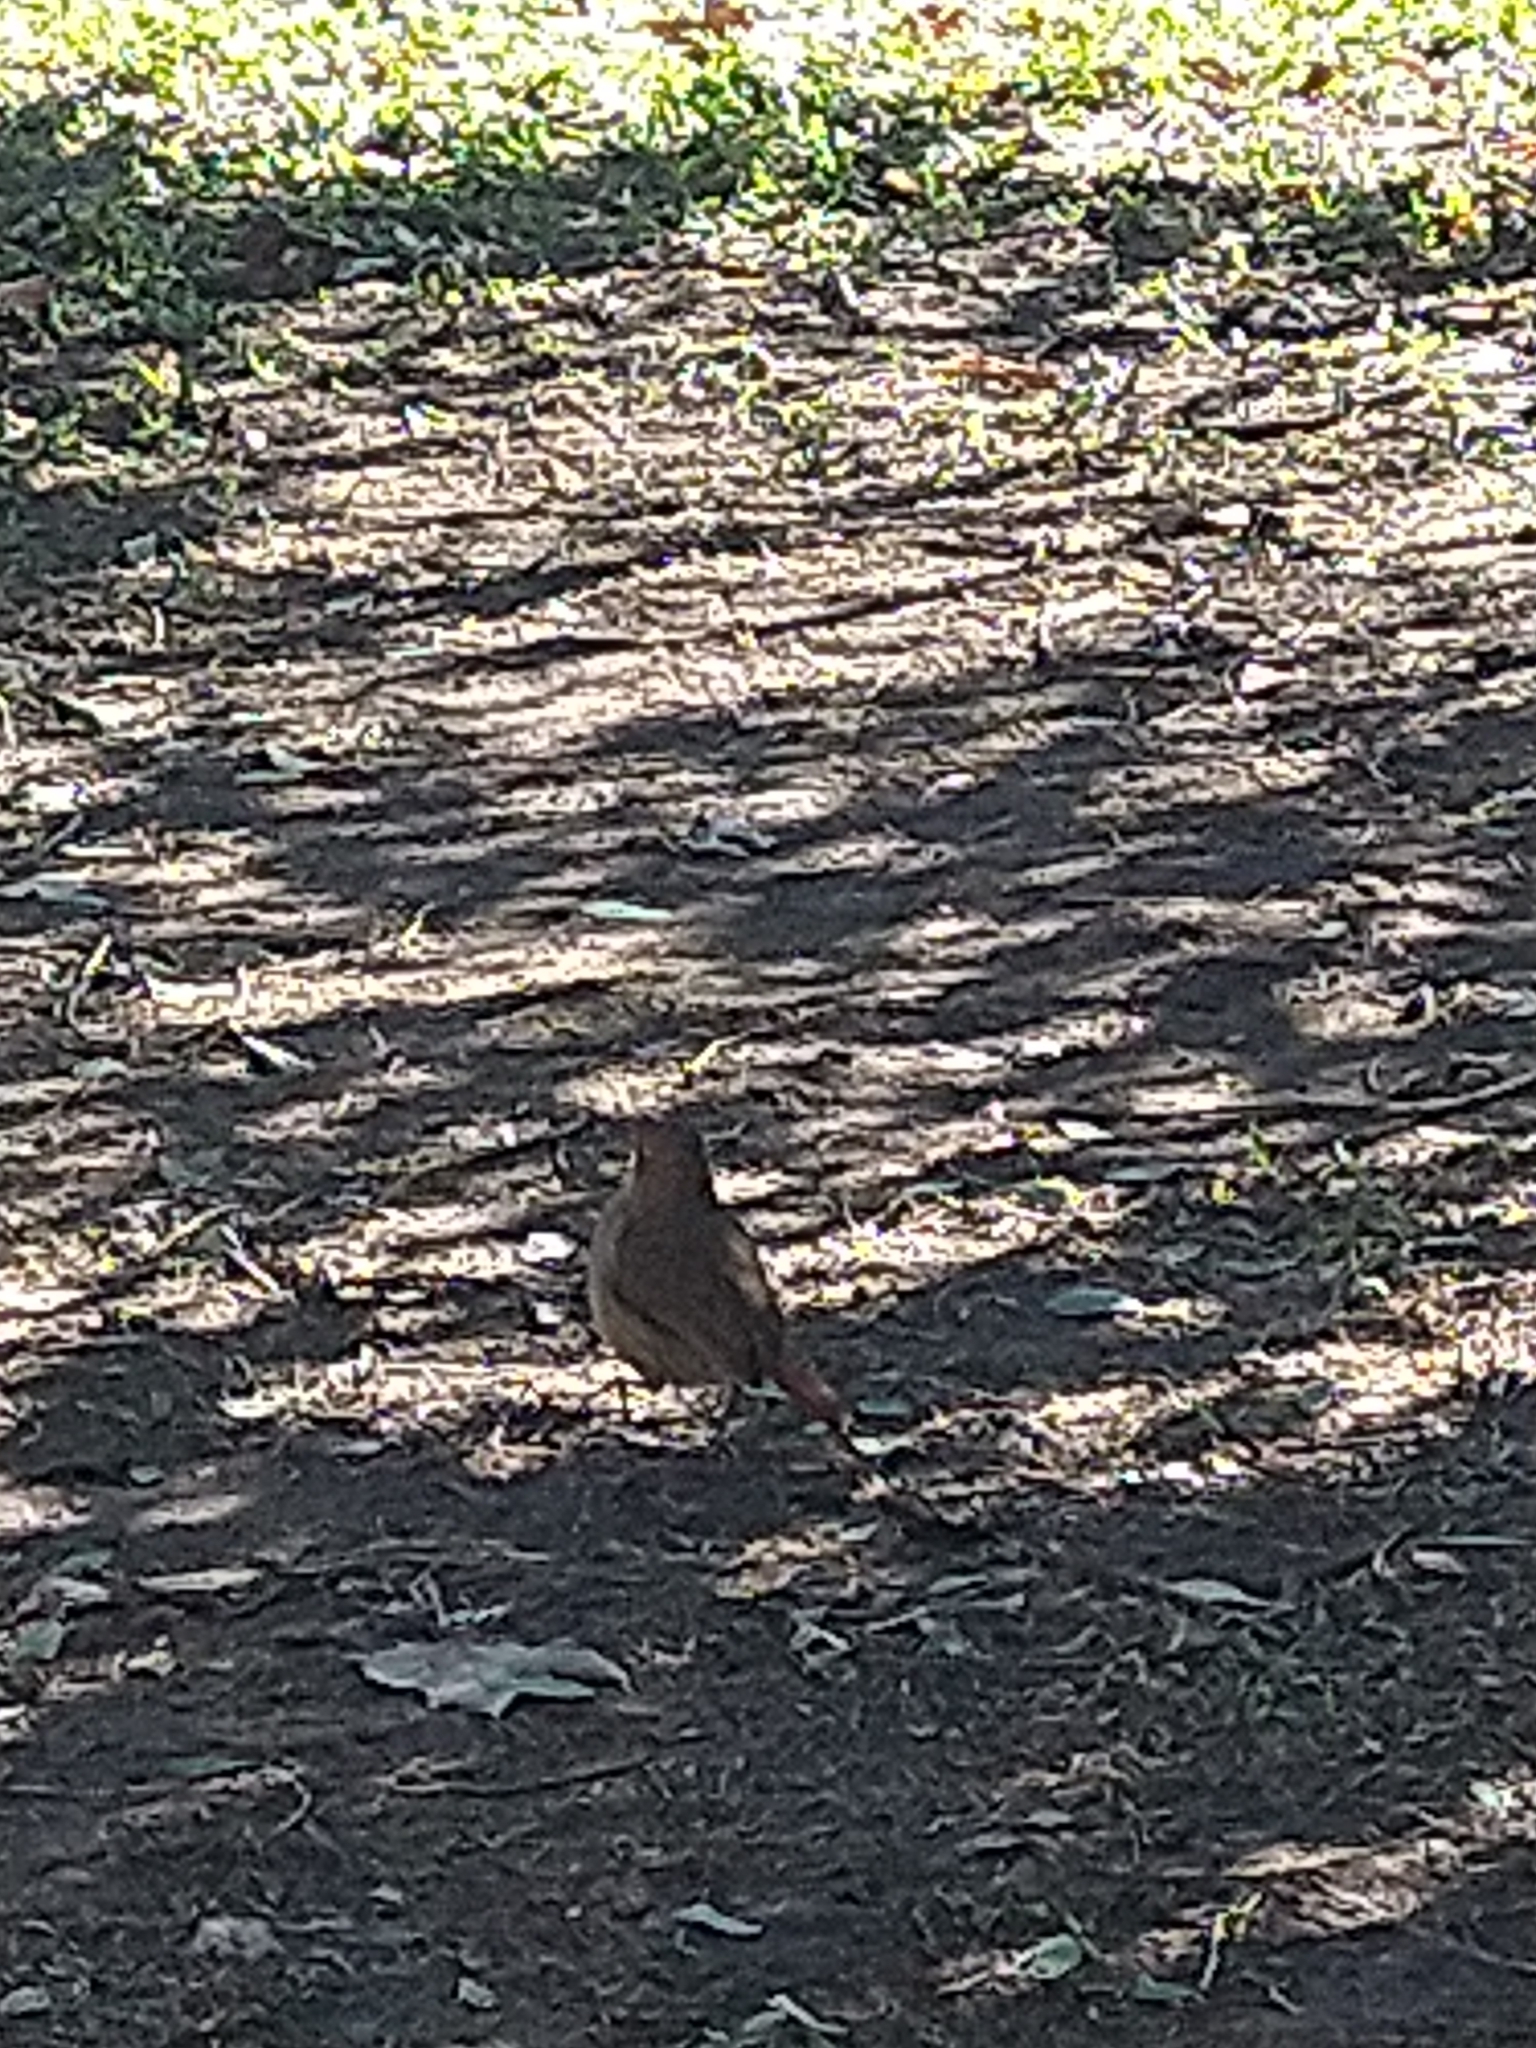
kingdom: Animalia
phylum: Chordata
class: Aves
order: Passeriformes
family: Furnariidae
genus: Furnarius
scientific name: Furnarius rufus
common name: Rufous hornero
